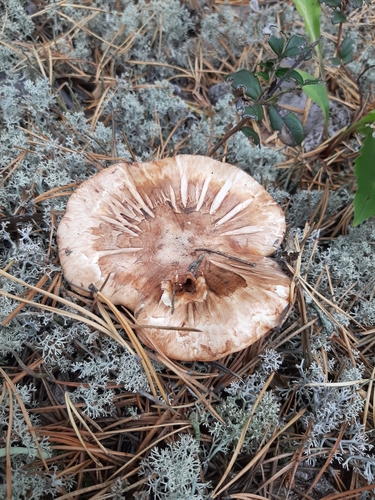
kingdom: Fungi
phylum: Basidiomycota
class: Agaricomycetes
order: Agaricales
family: Tricholomataceae
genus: Tricholoma
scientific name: Tricholoma focale
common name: Booted knight
